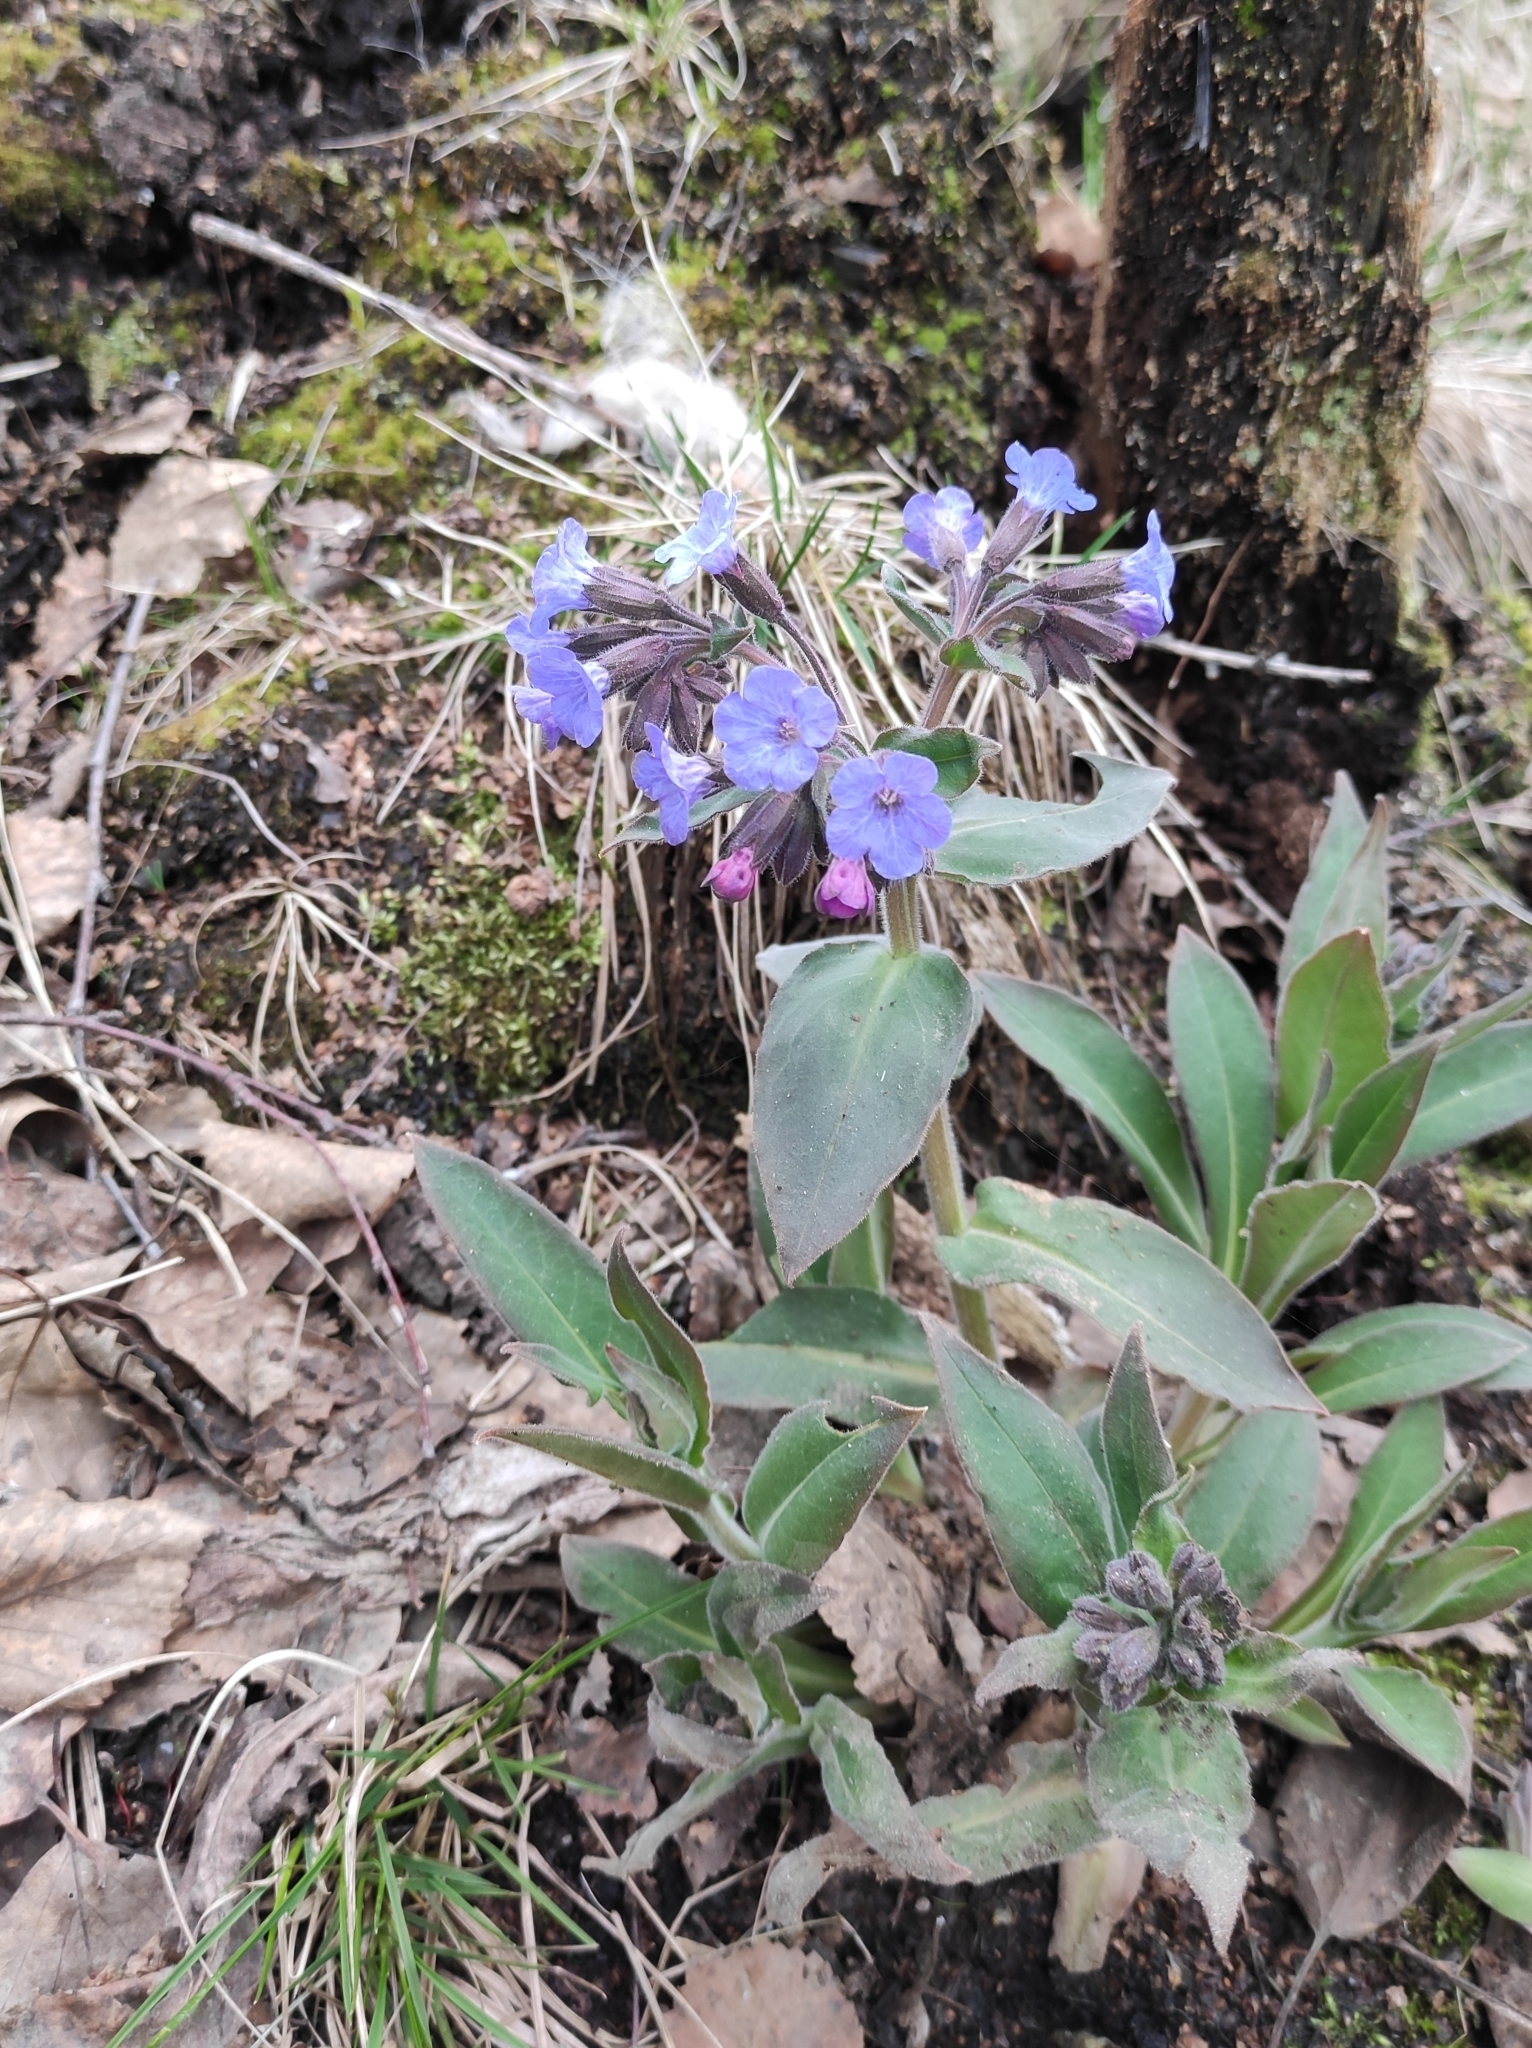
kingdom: Plantae
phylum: Tracheophyta
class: Magnoliopsida
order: Boraginales
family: Boraginaceae
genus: Pulmonaria
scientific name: Pulmonaria mollis
